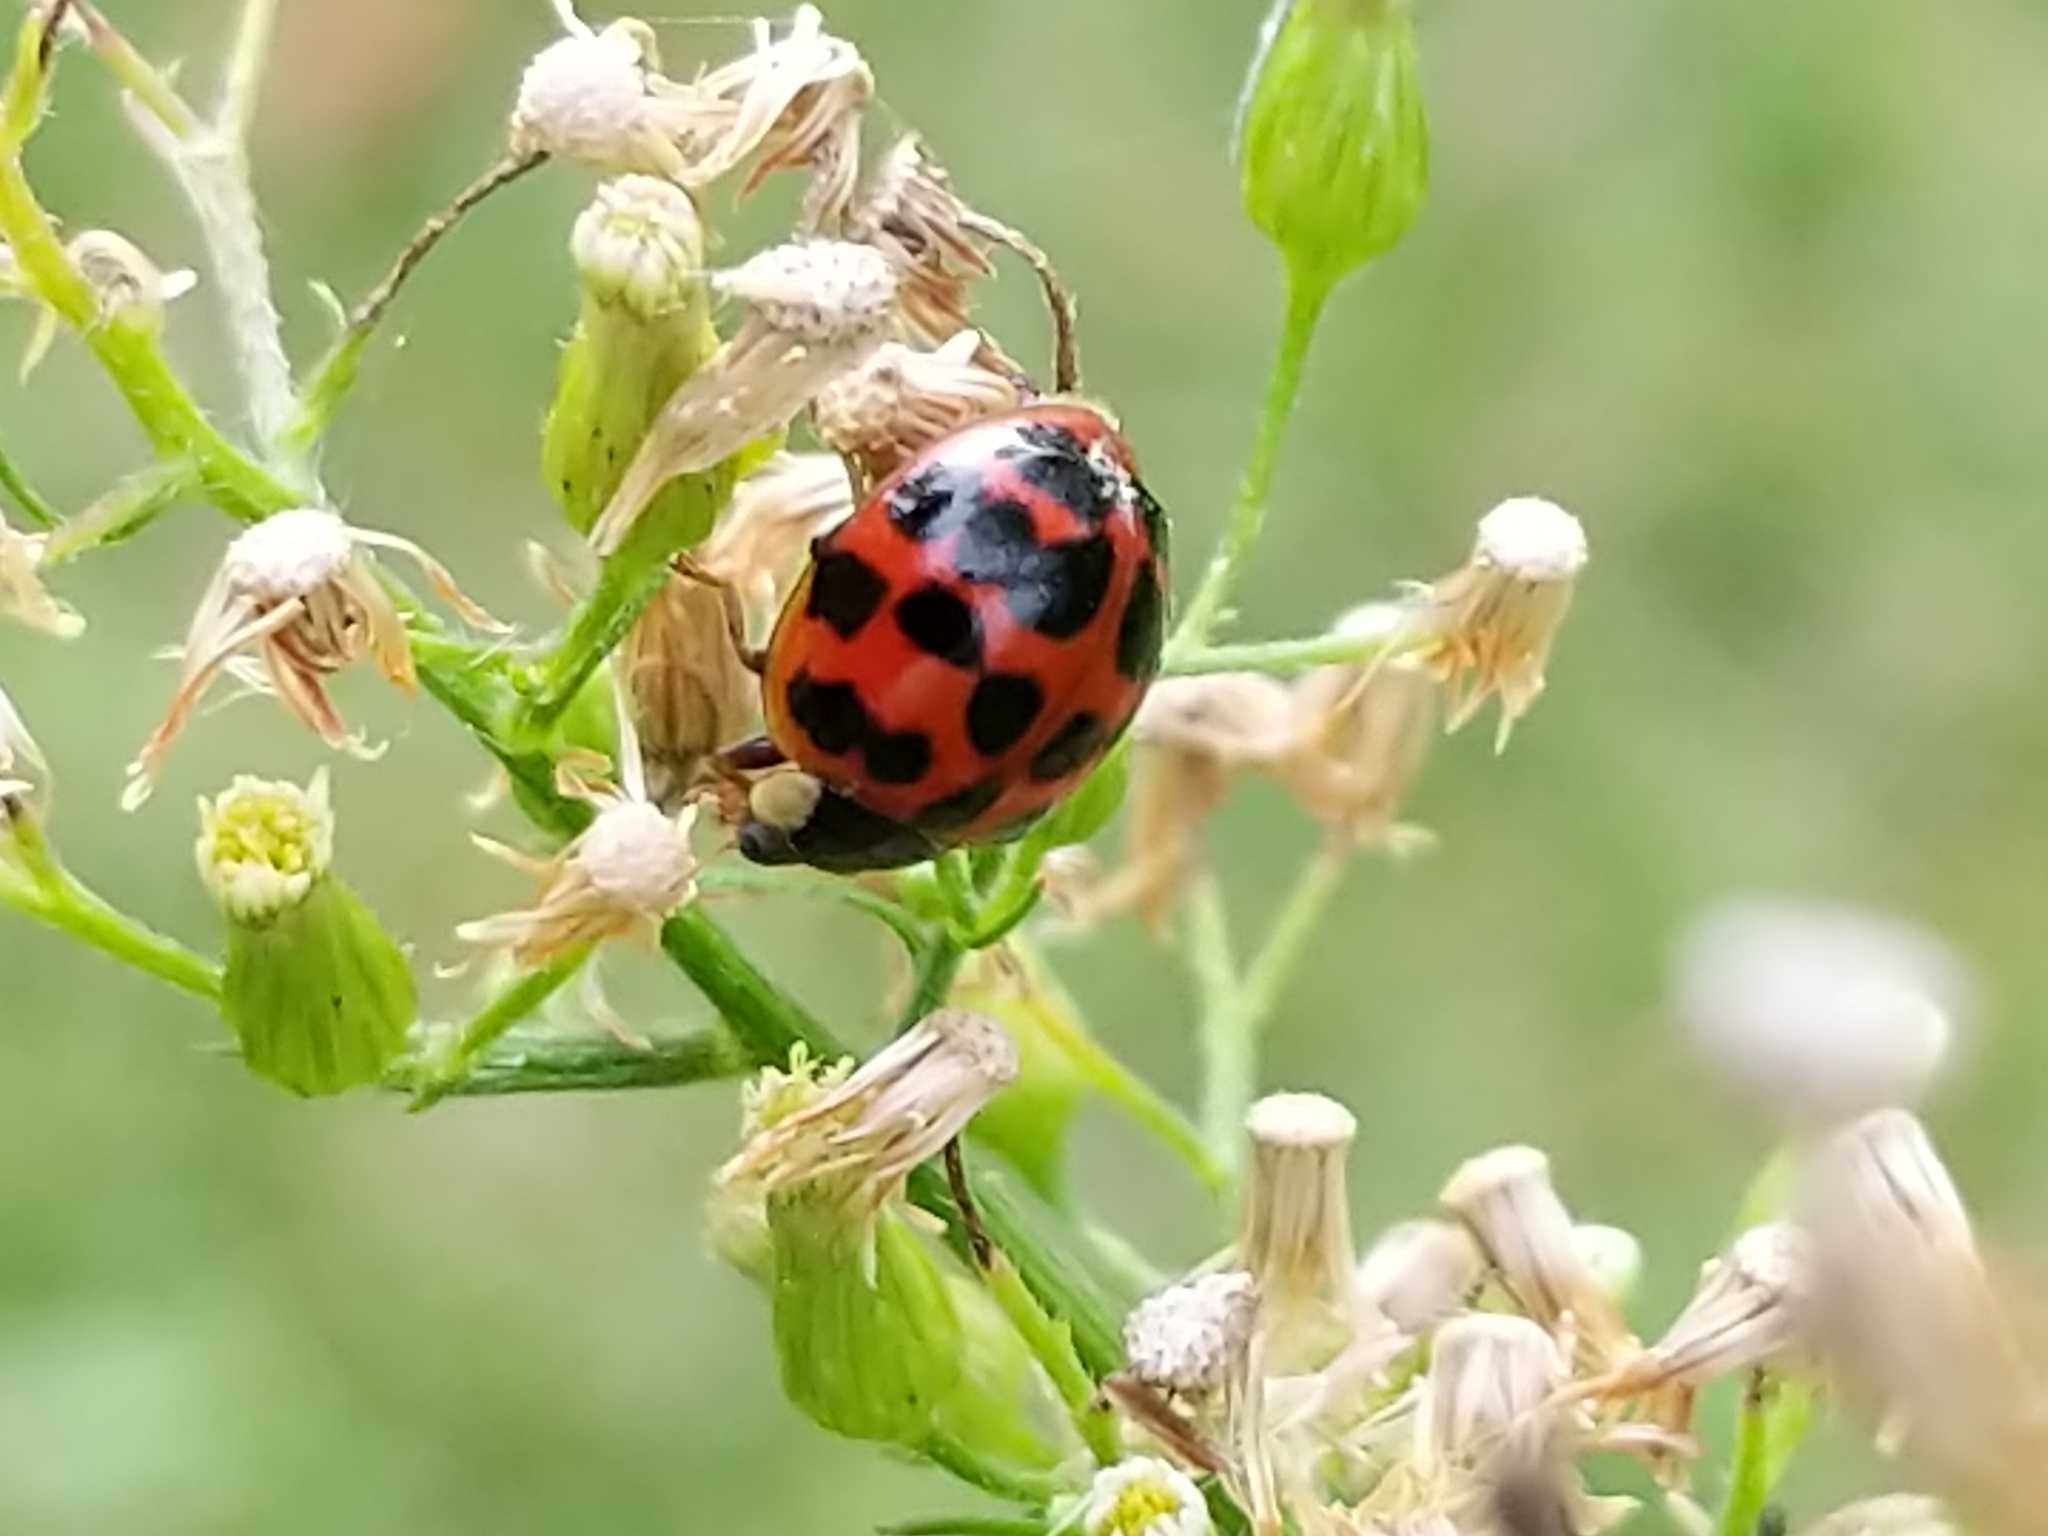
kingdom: Animalia
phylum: Arthropoda
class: Insecta
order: Coleoptera
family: Coccinellidae
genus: Harmonia
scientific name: Harmonia axyridis
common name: Harlequin ladybird
